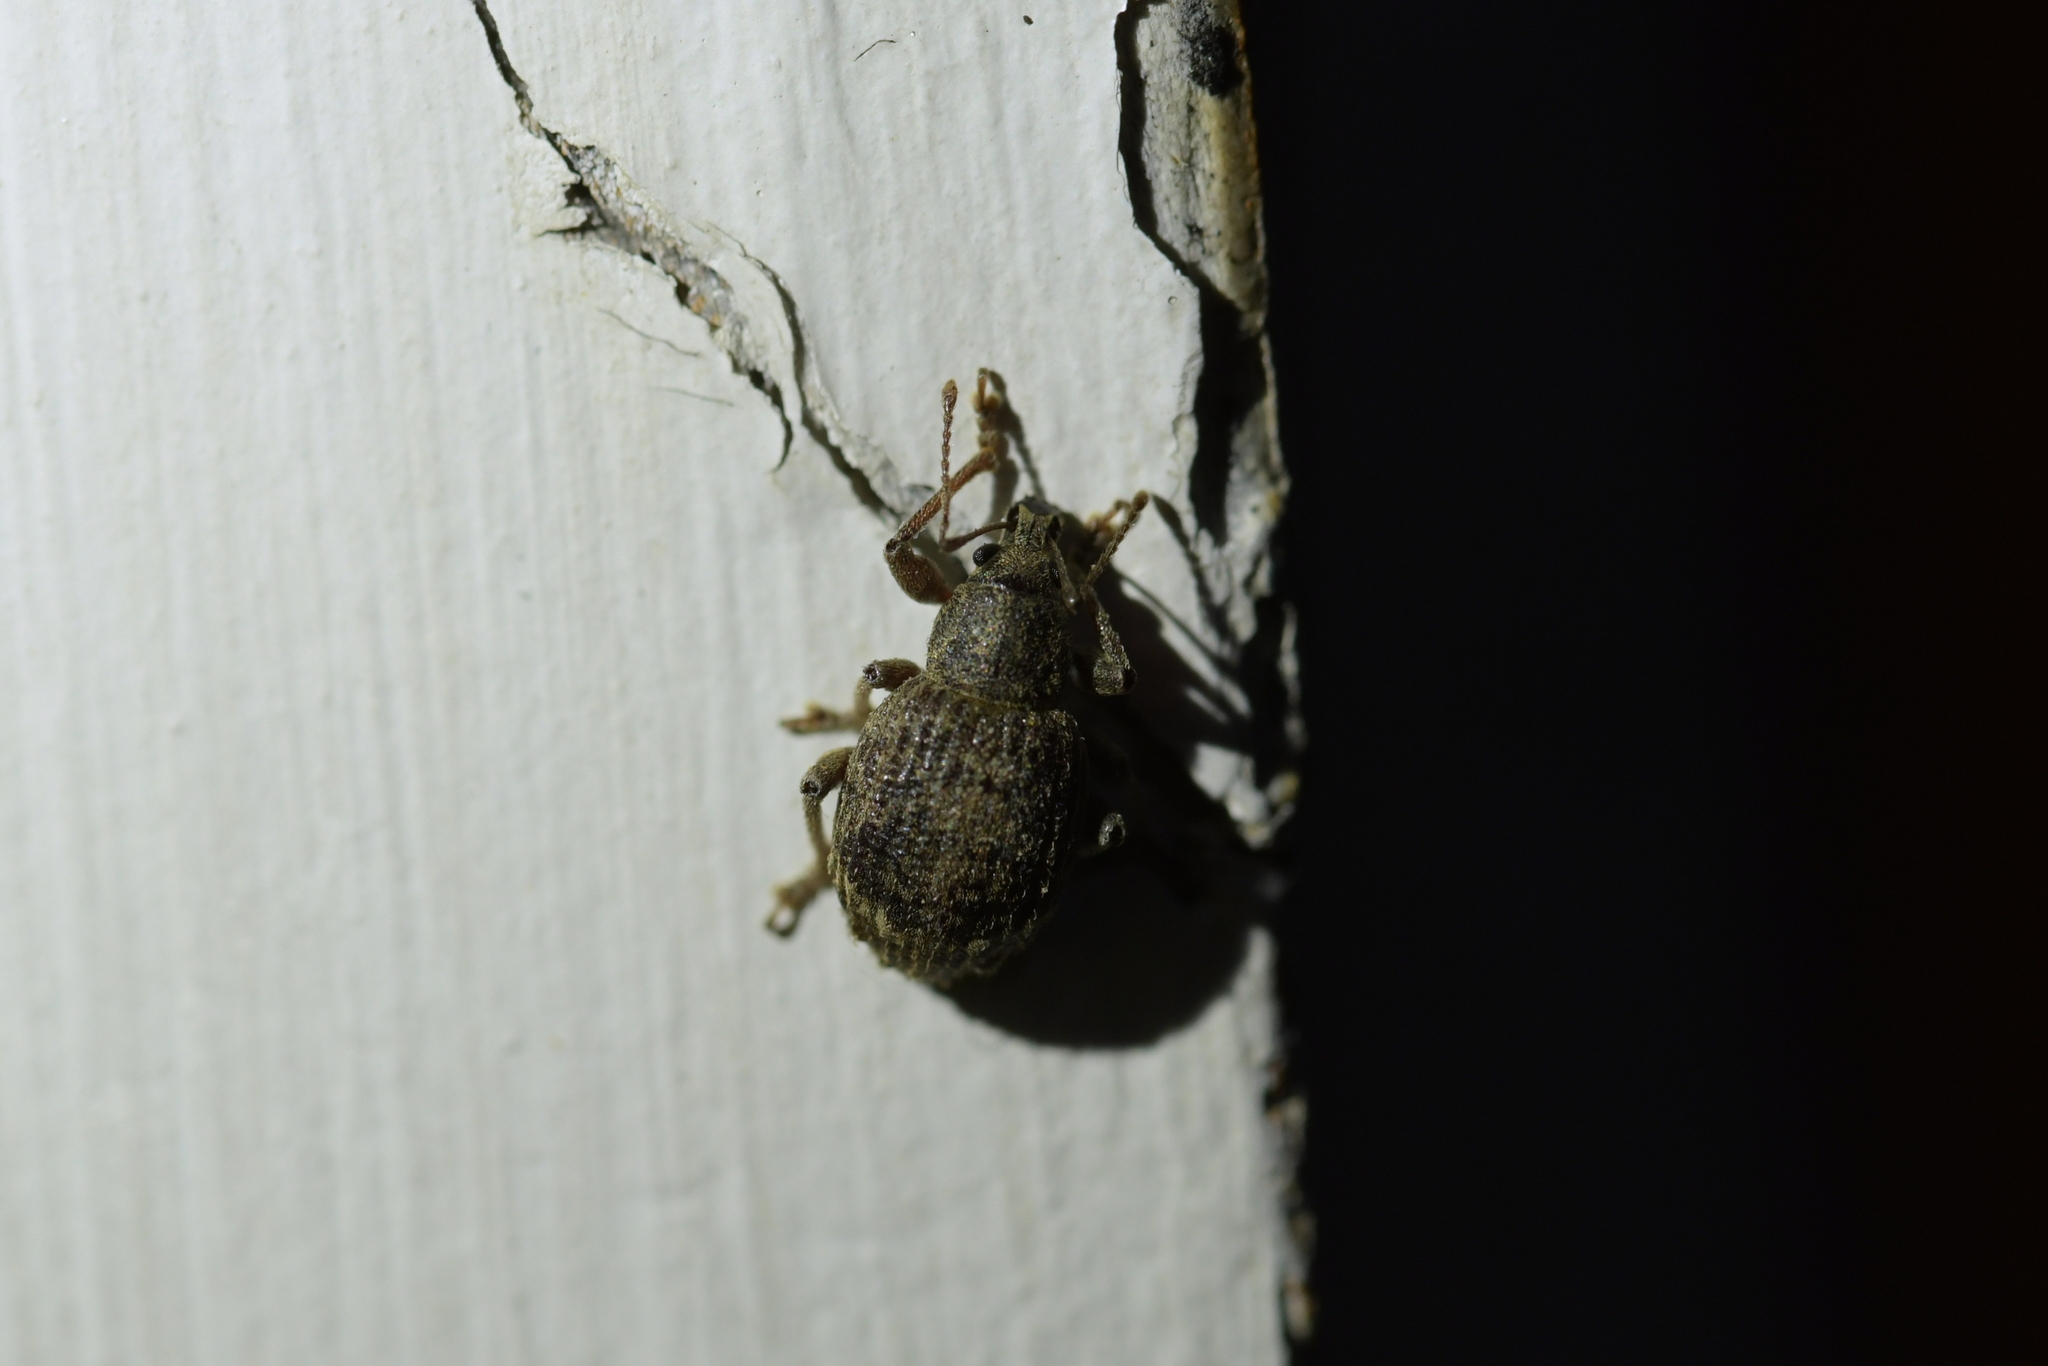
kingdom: Animalia
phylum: Arthropoda
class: Insecta
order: Coleoptera
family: Curculionidae
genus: Phlyctinus
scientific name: Phlyctinus callosus
